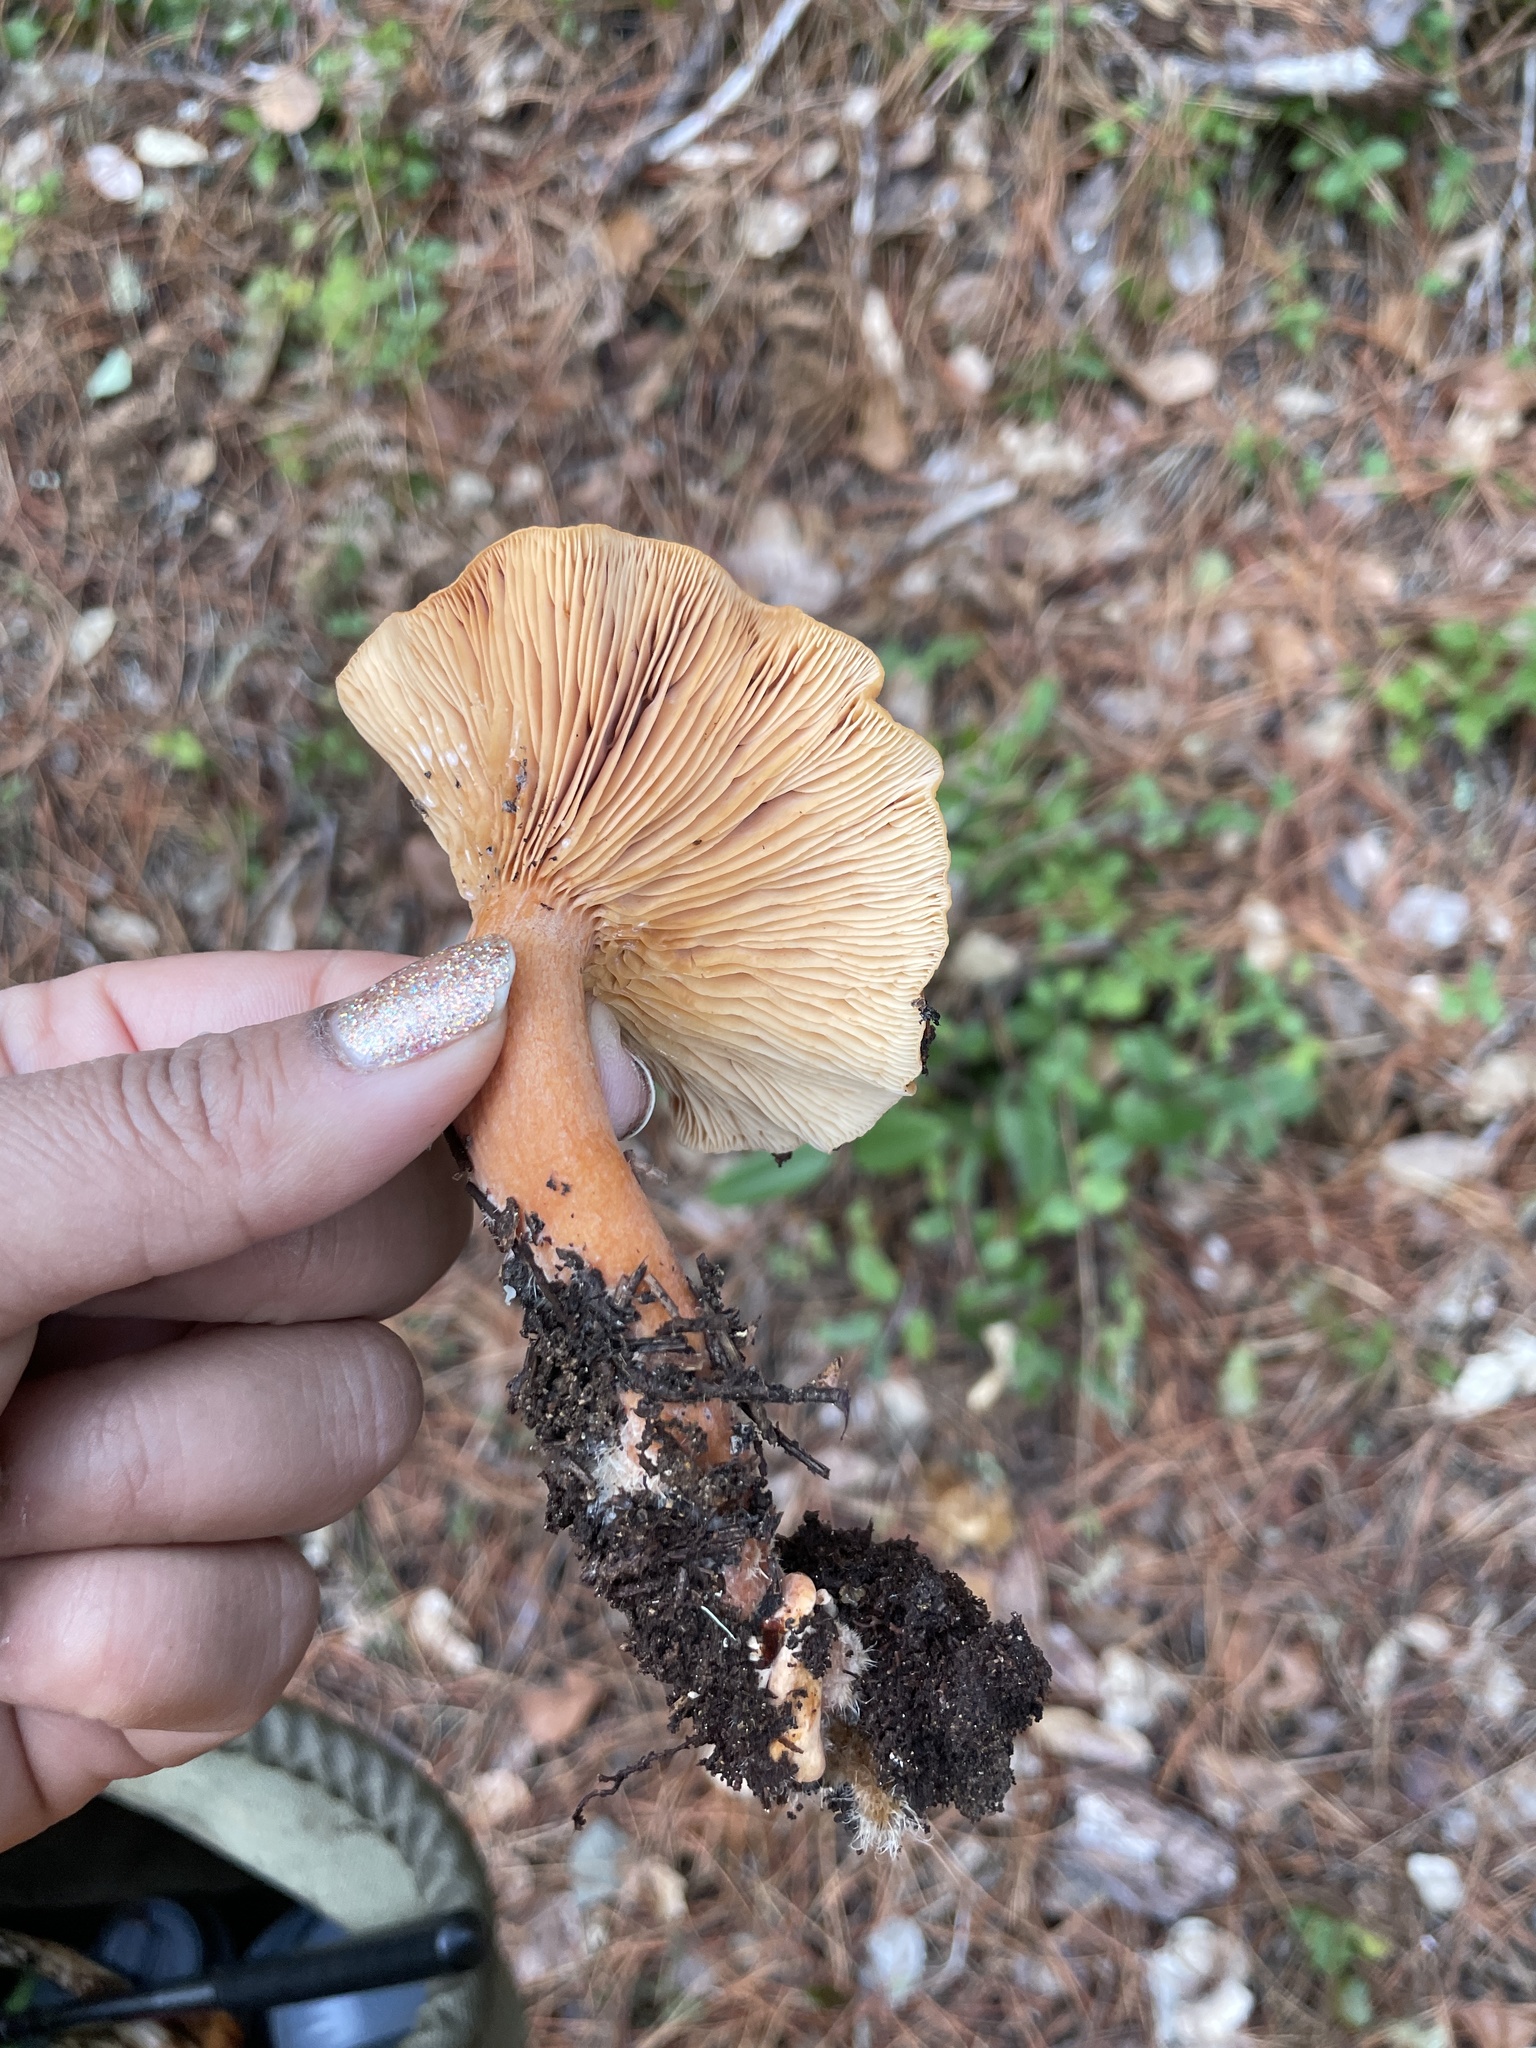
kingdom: Fungi
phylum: Basidiomycota
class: Agaricomycetes
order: Russulales
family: Russulaceae
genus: Lactarius
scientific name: Lactarius rubidus
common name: Candy cap
